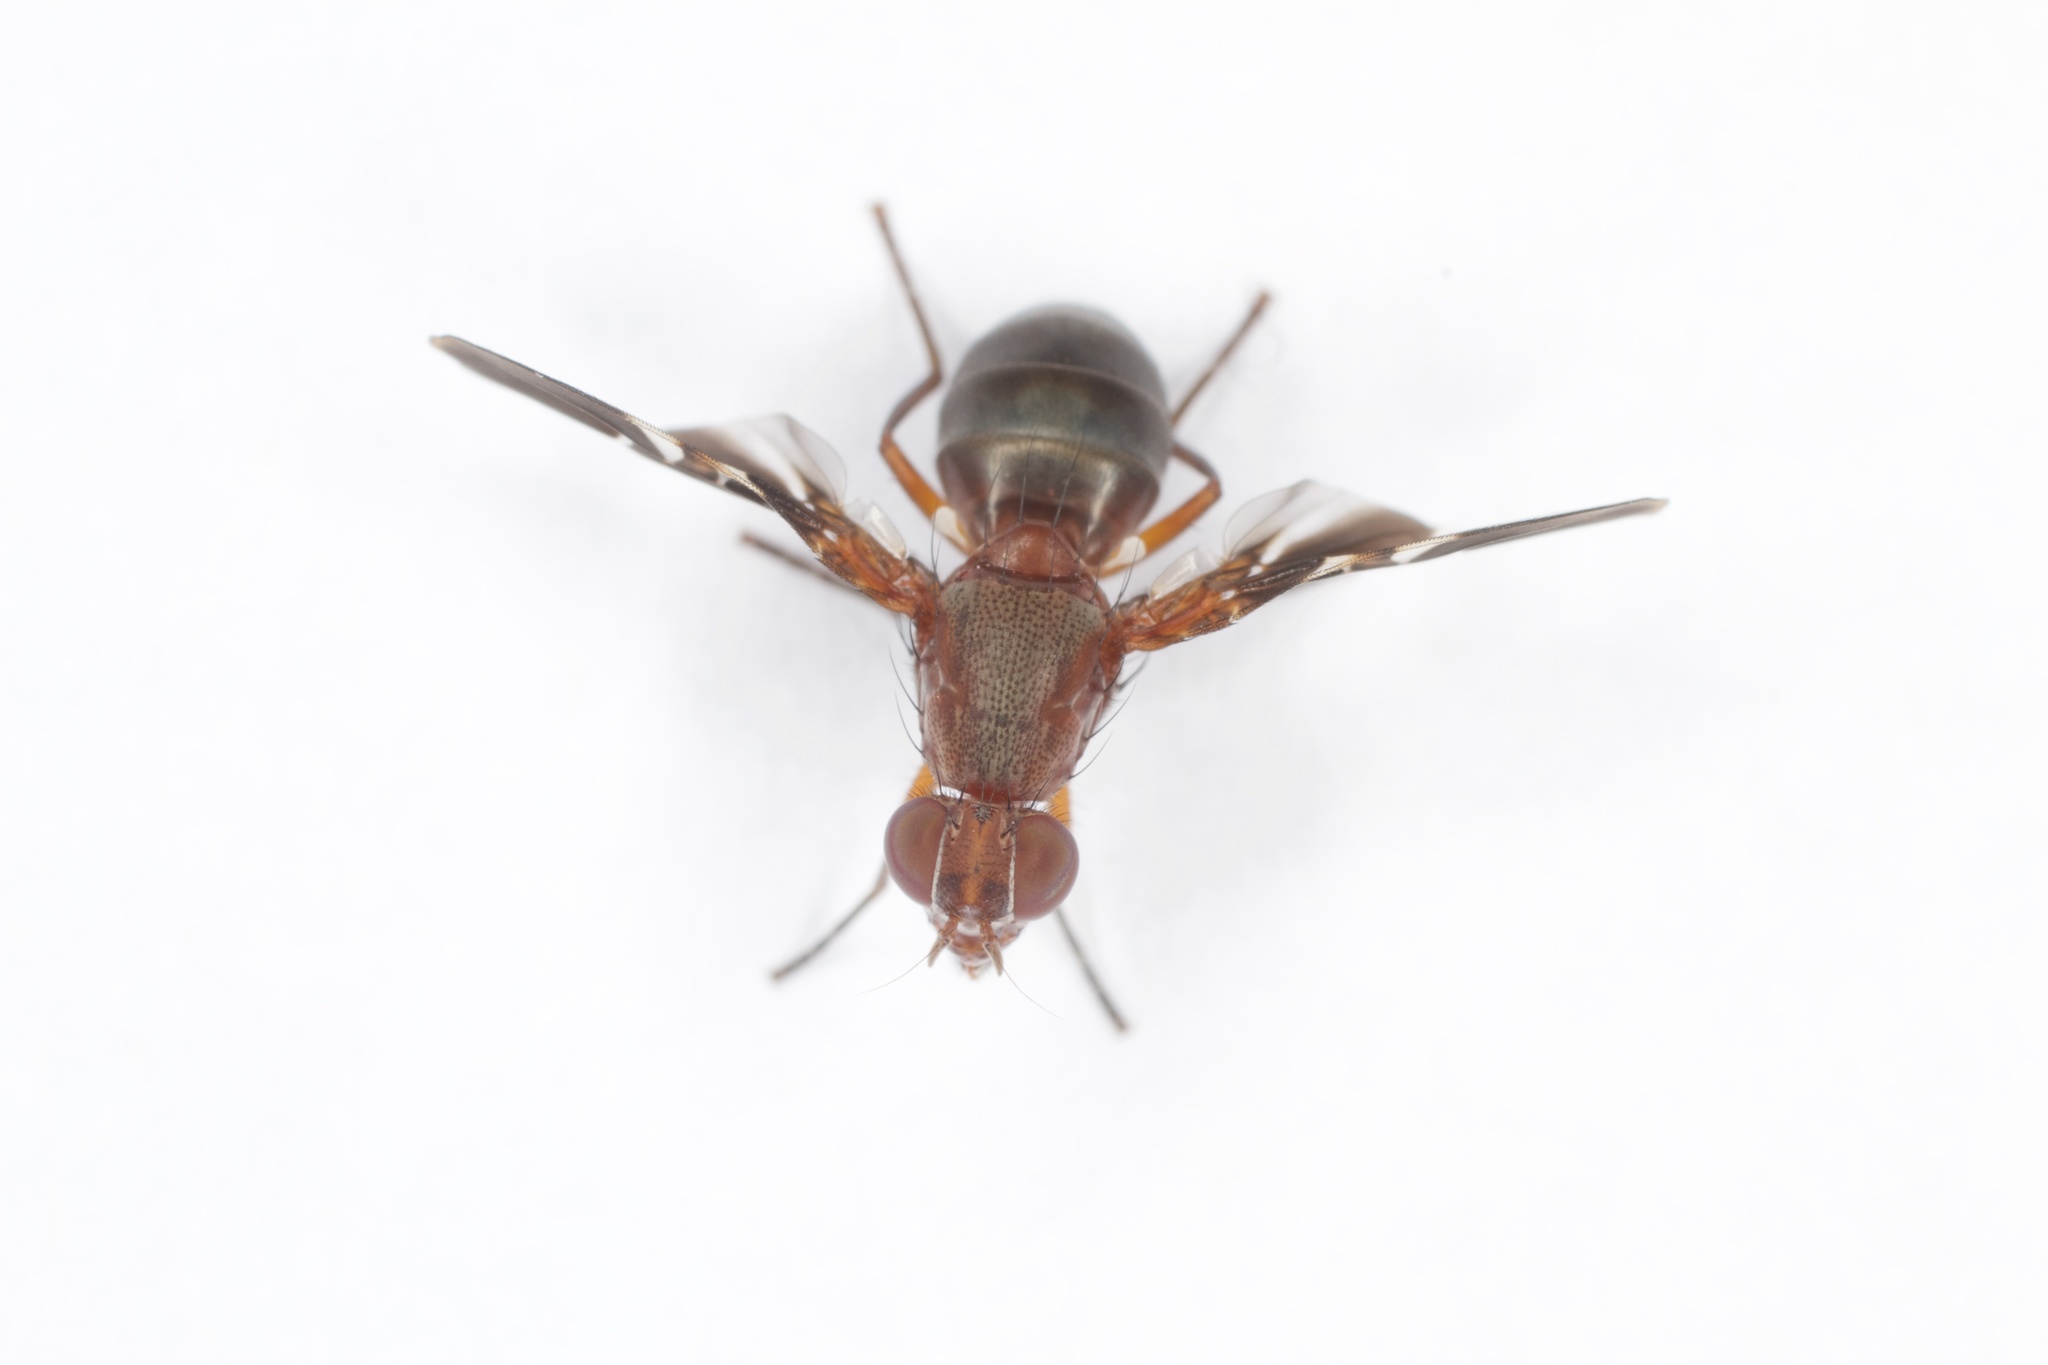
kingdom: Animalia
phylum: Arthropoda
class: Insecta
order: Diptera
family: Ulidiidae
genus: Delphinia
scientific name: Delphinia picta
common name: Common picture-winged fly
